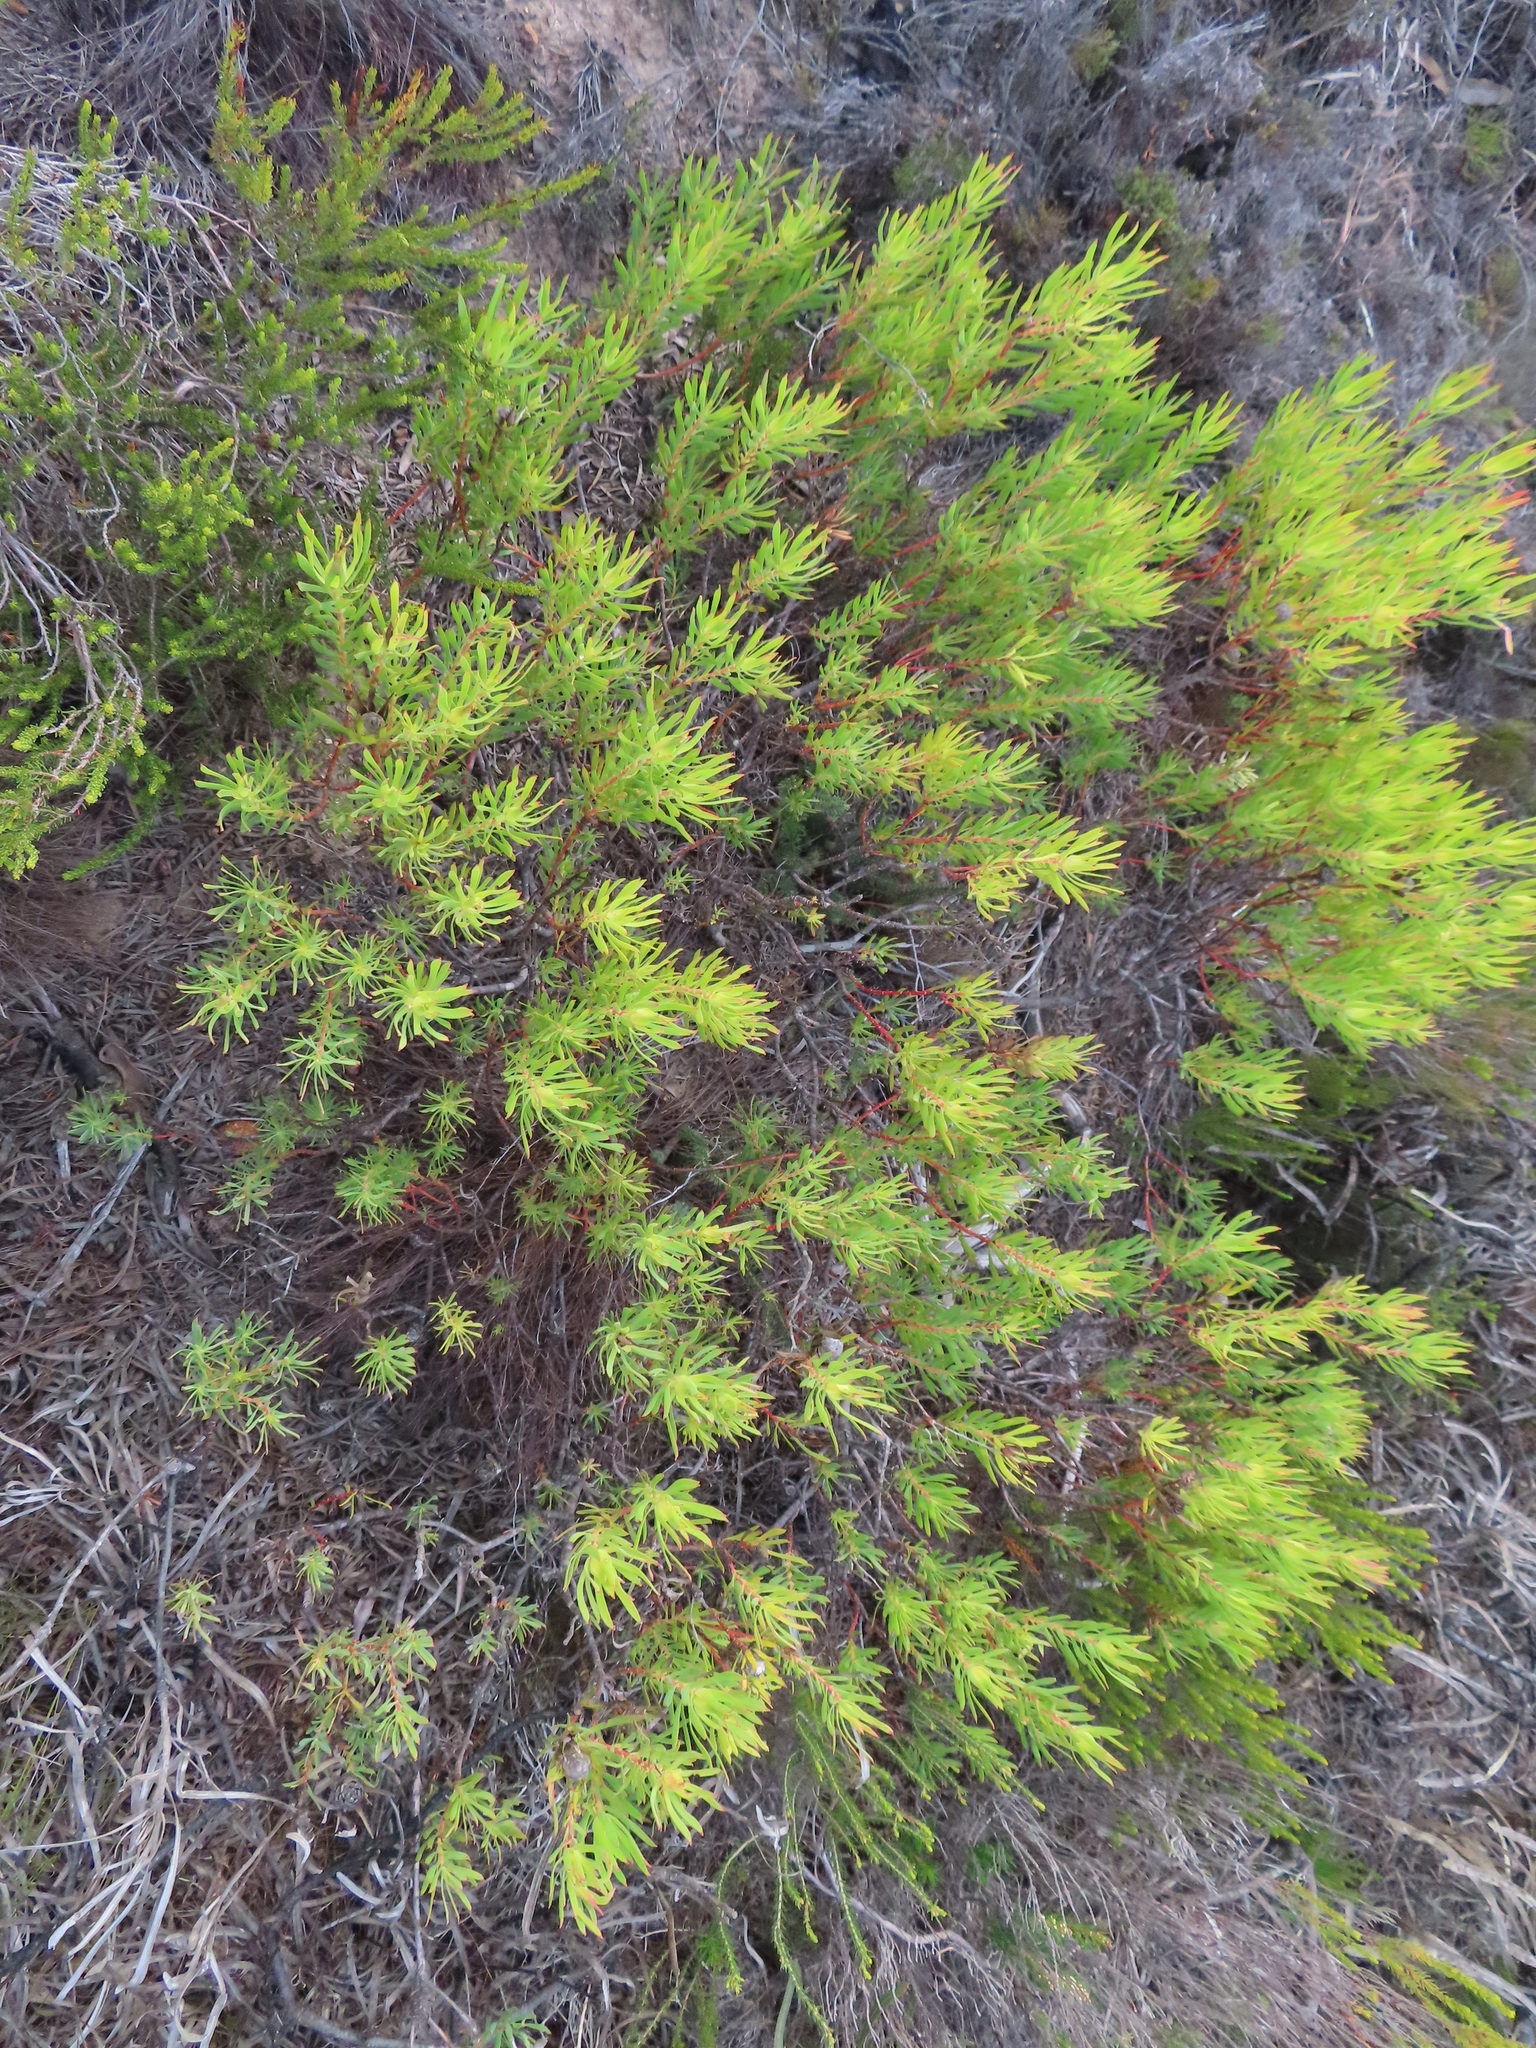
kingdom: Plantae
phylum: Tracheophyta
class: Magnoliopsida
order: Proteales
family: Proteaceae
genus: Leucadendron
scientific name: Leucadendron salignum
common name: Common sunshine conebush
